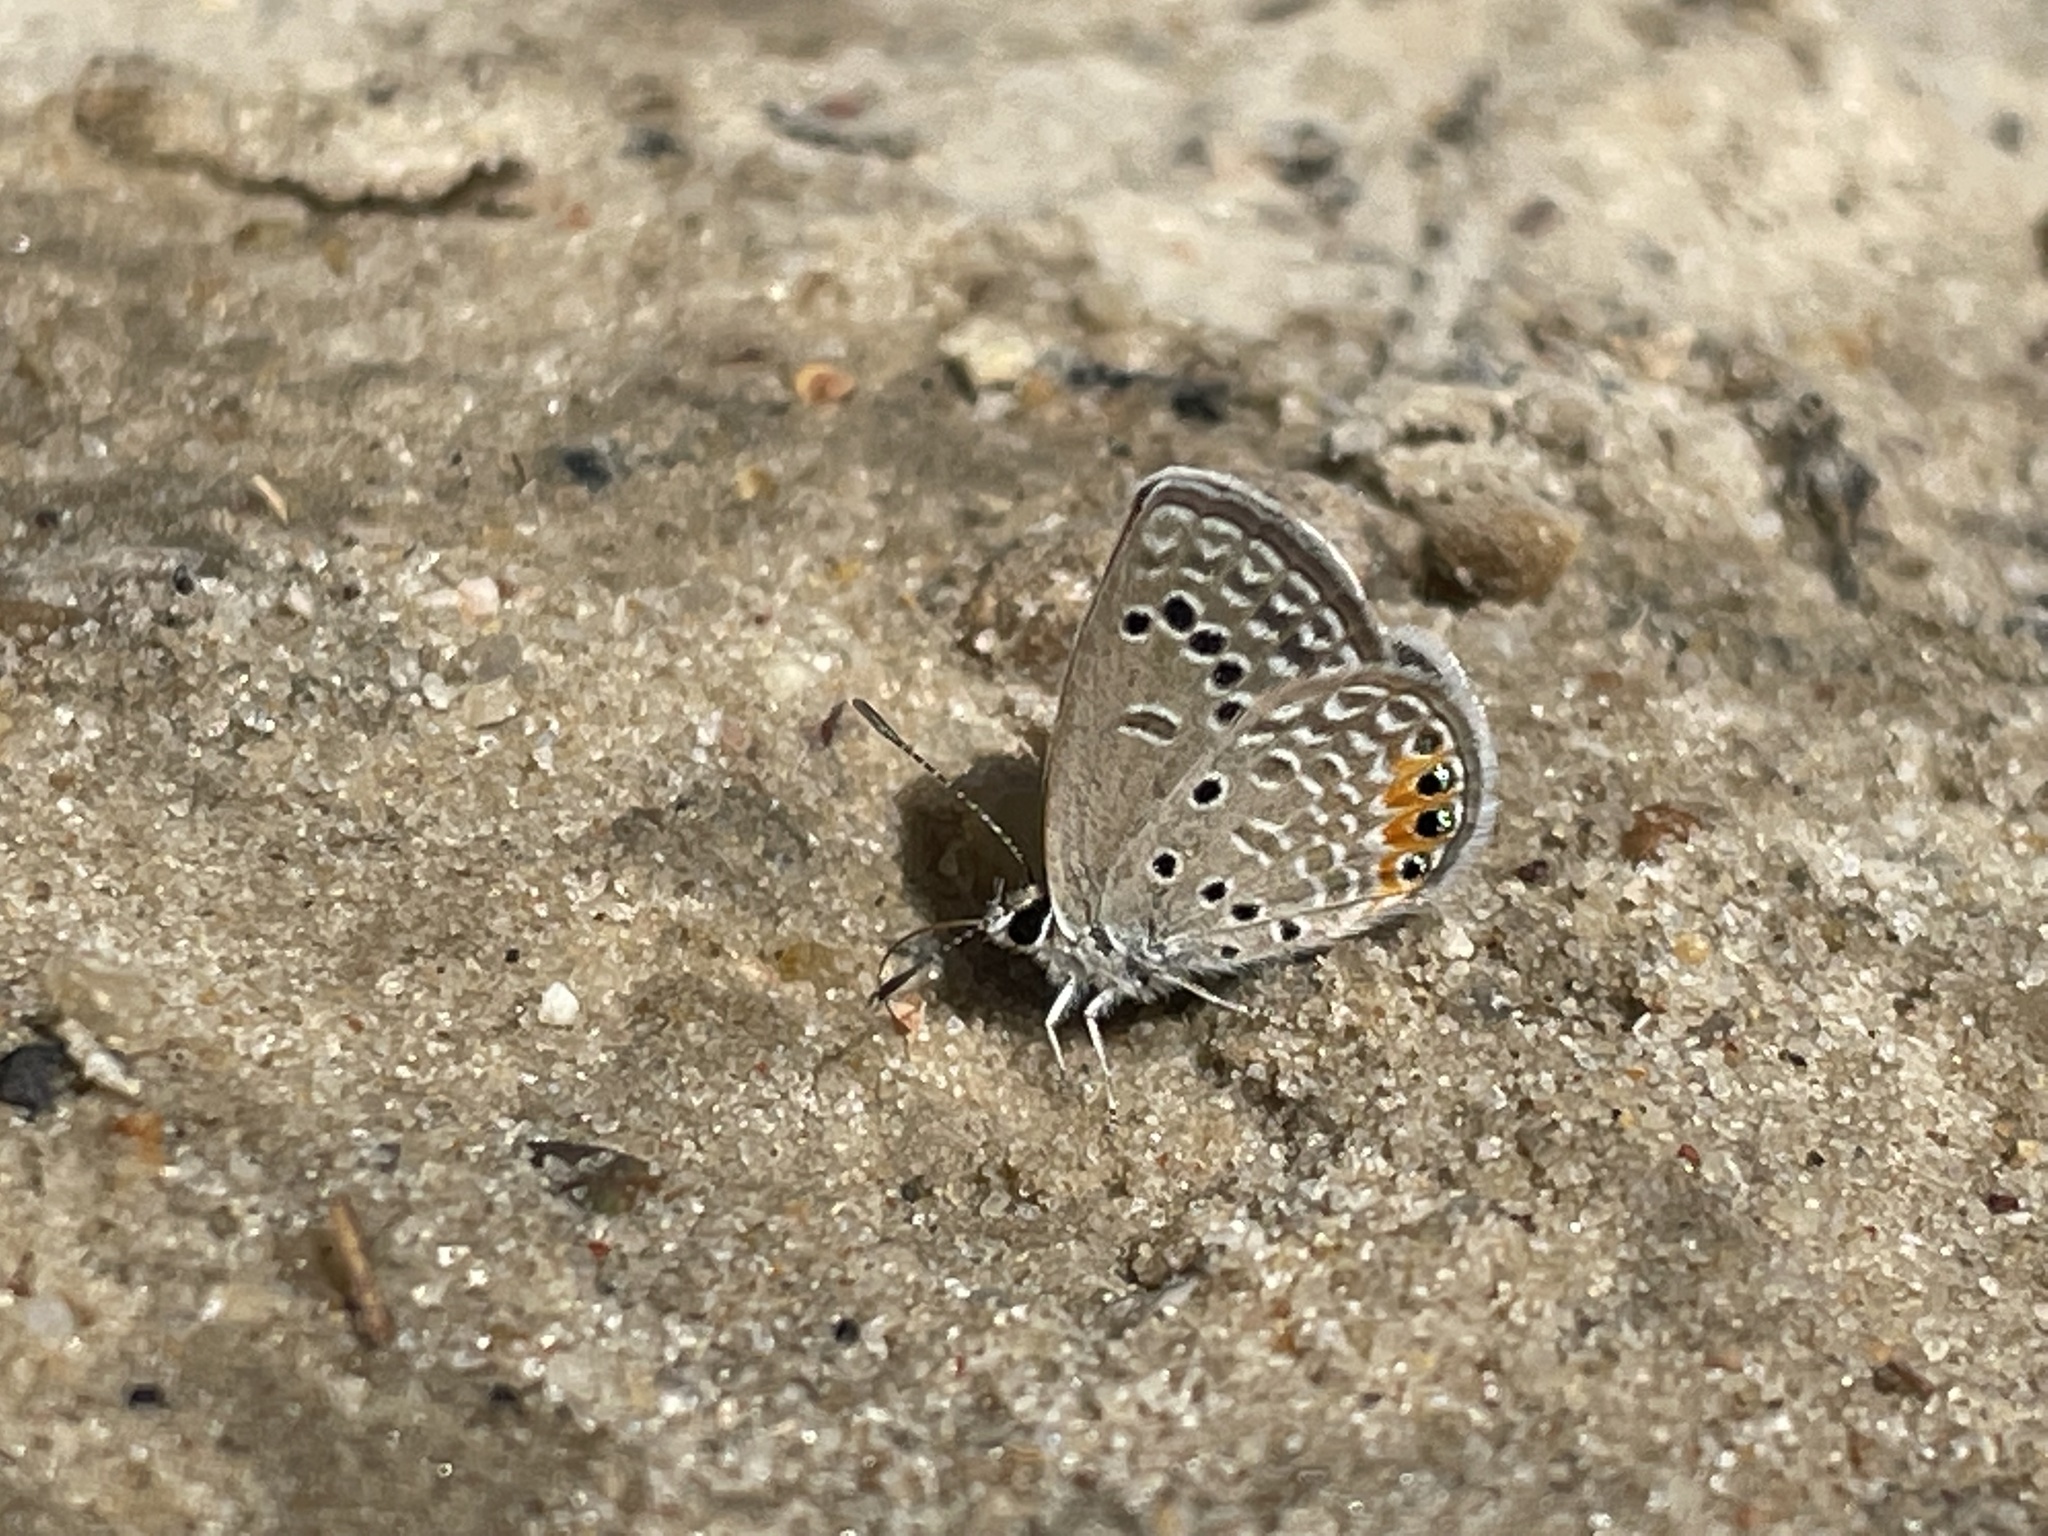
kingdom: Animalia
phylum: Arthropoda
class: Insecta
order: Lepidoptera
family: Lycaenidae
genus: Freyeria
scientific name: Freyeria trochylus
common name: Grass jewel
